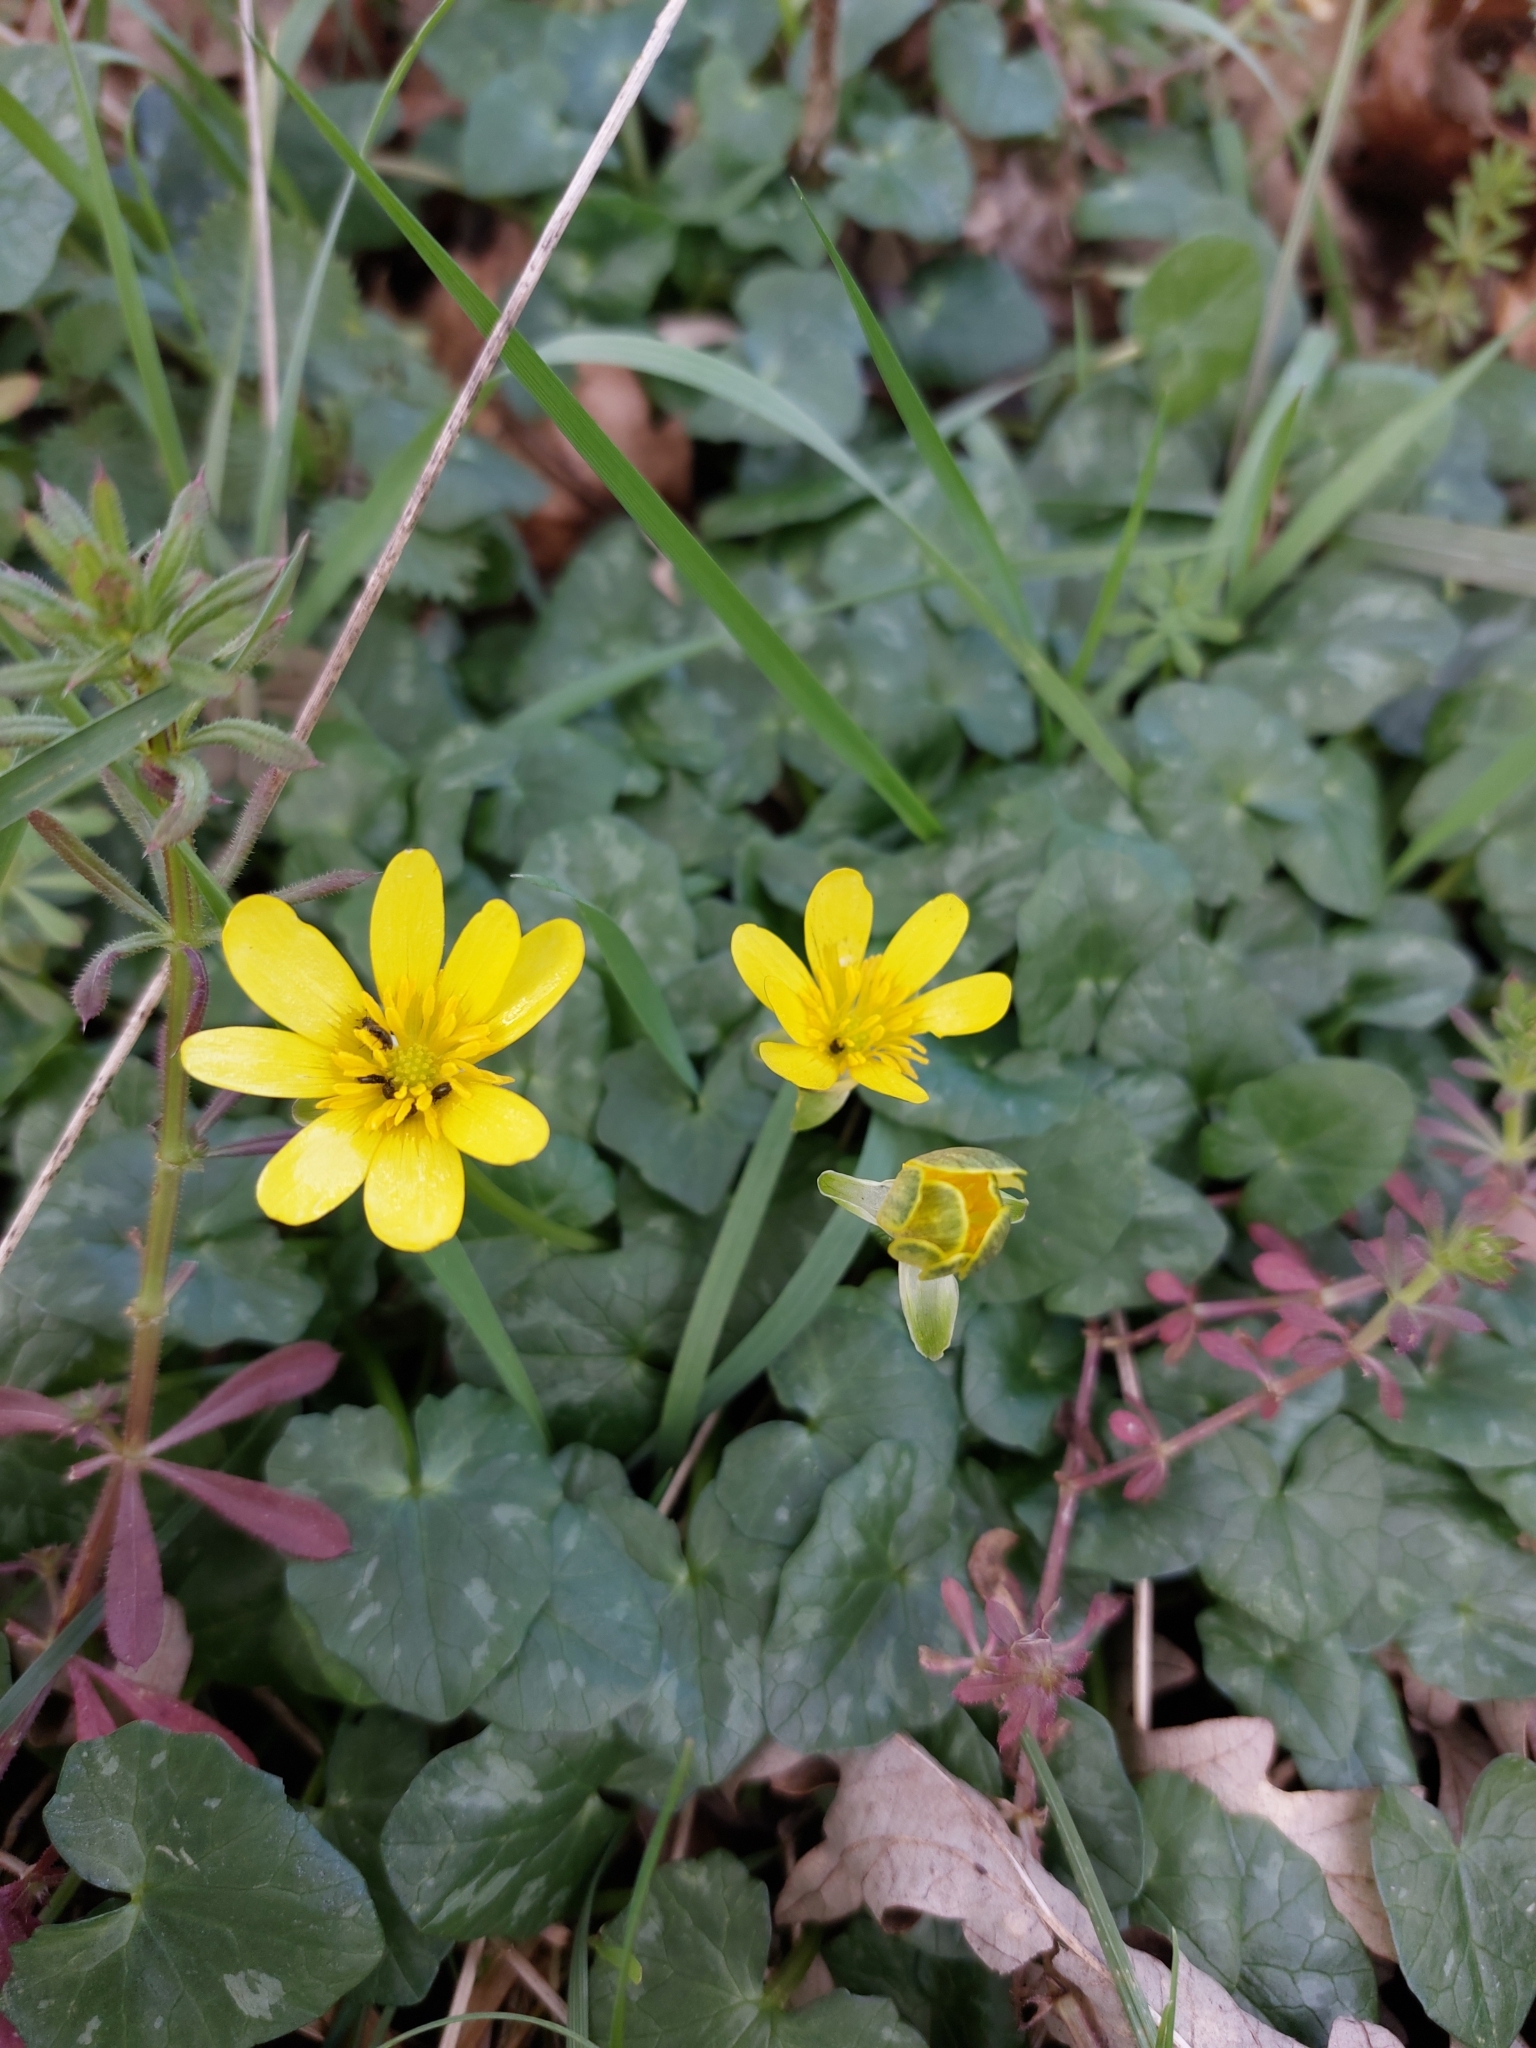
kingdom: Plantae
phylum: Tracheophyta
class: Magnoliopsida
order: Ranunculales
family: Ranunculaceae
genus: Ficaria
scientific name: Ficaria verna
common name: Lesser celandine
